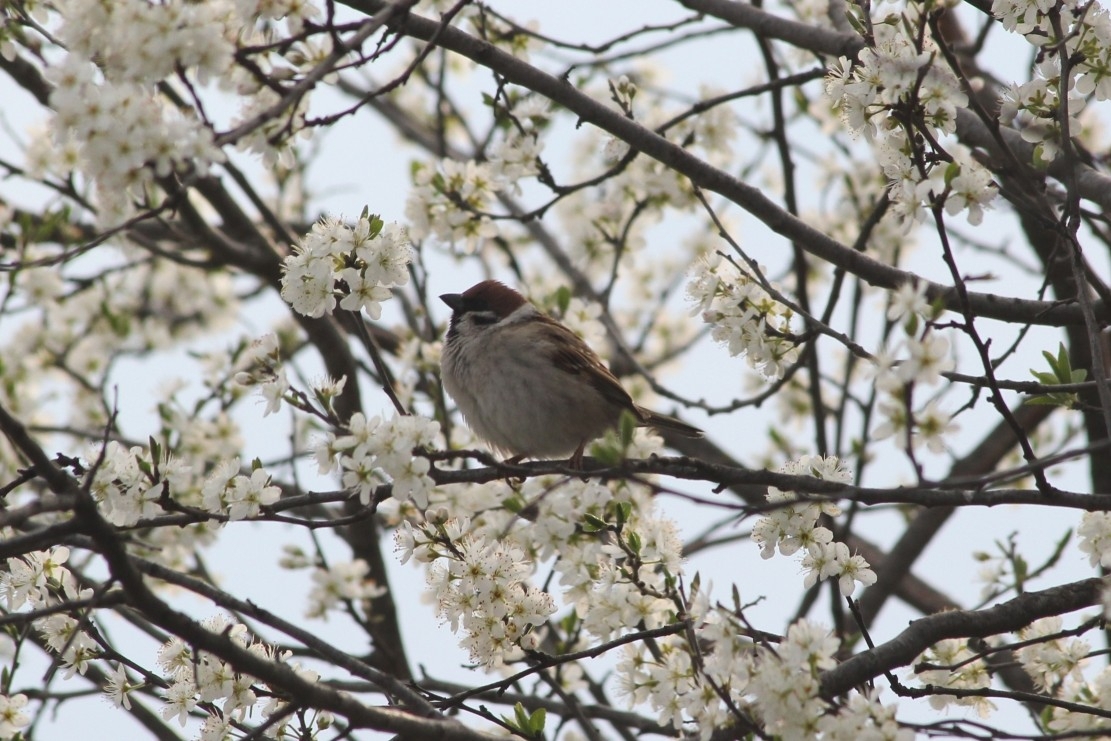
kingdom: Animalia
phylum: Chordata
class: Aves
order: Passeriformes
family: Passeridae
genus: Passer
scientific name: Passer montanus
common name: Eurasian tree sparrow
